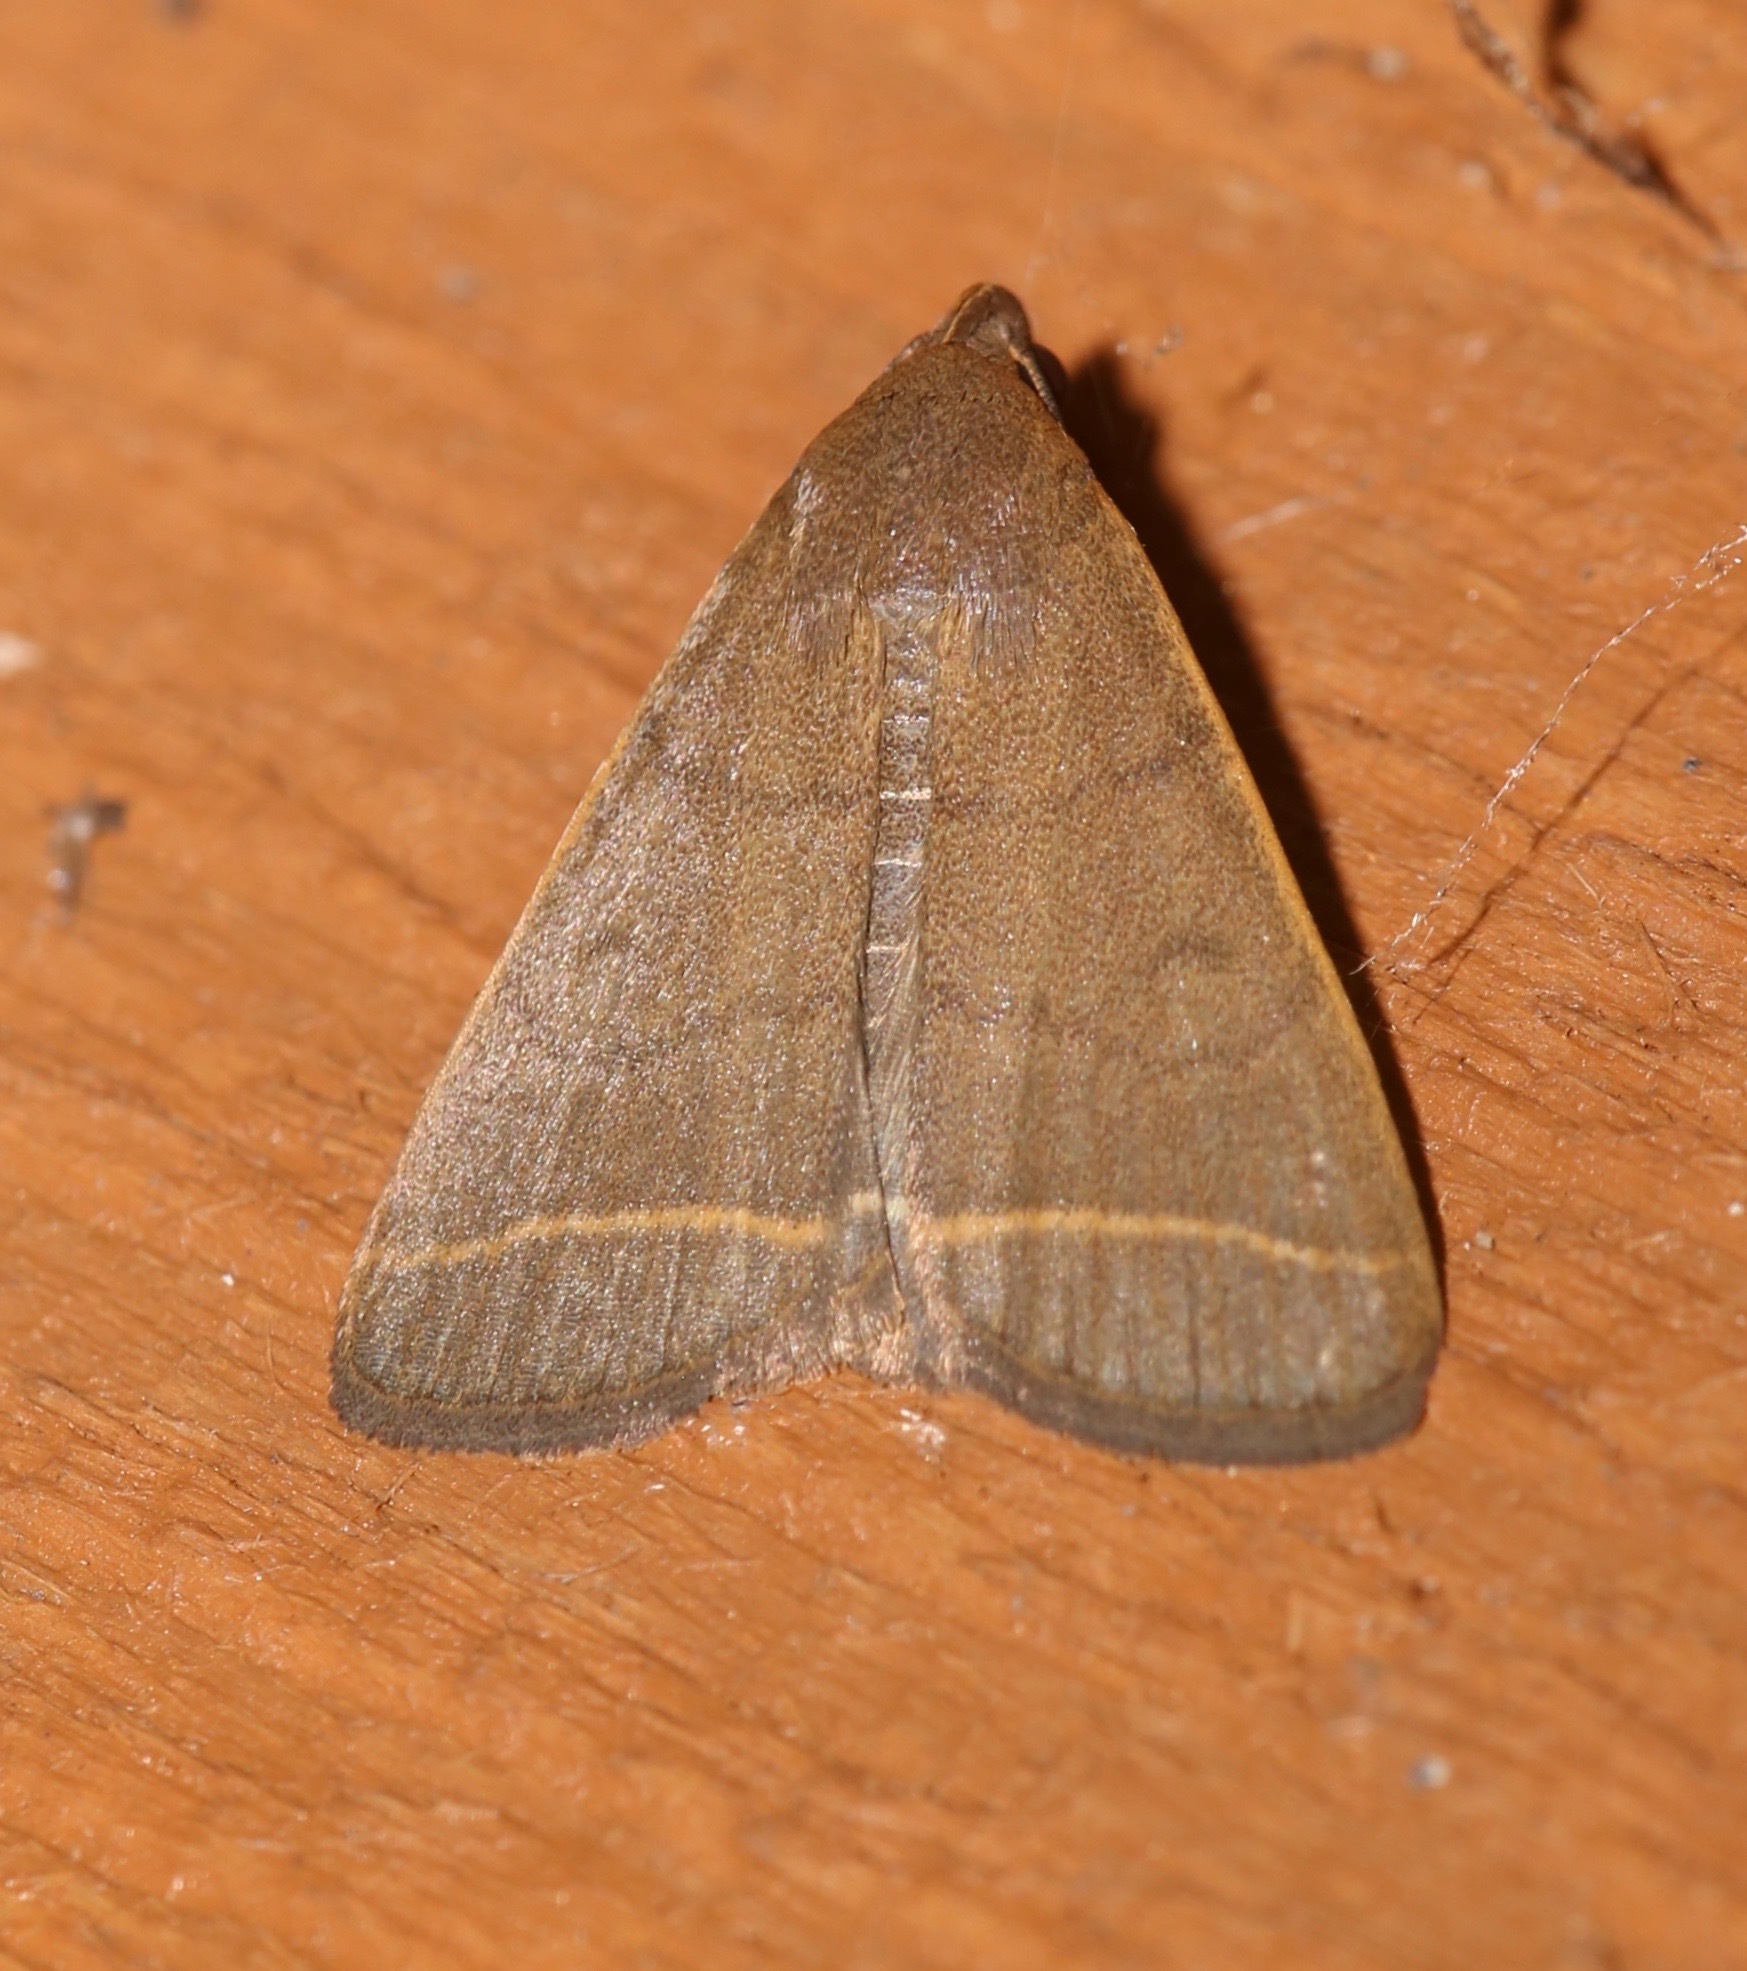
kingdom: Animalia
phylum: Arthropoda
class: Insecta
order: Lepidoptera
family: Erebidae
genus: Simplicia
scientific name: Simplicia cornicalis
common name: Tiki hut litter moth
